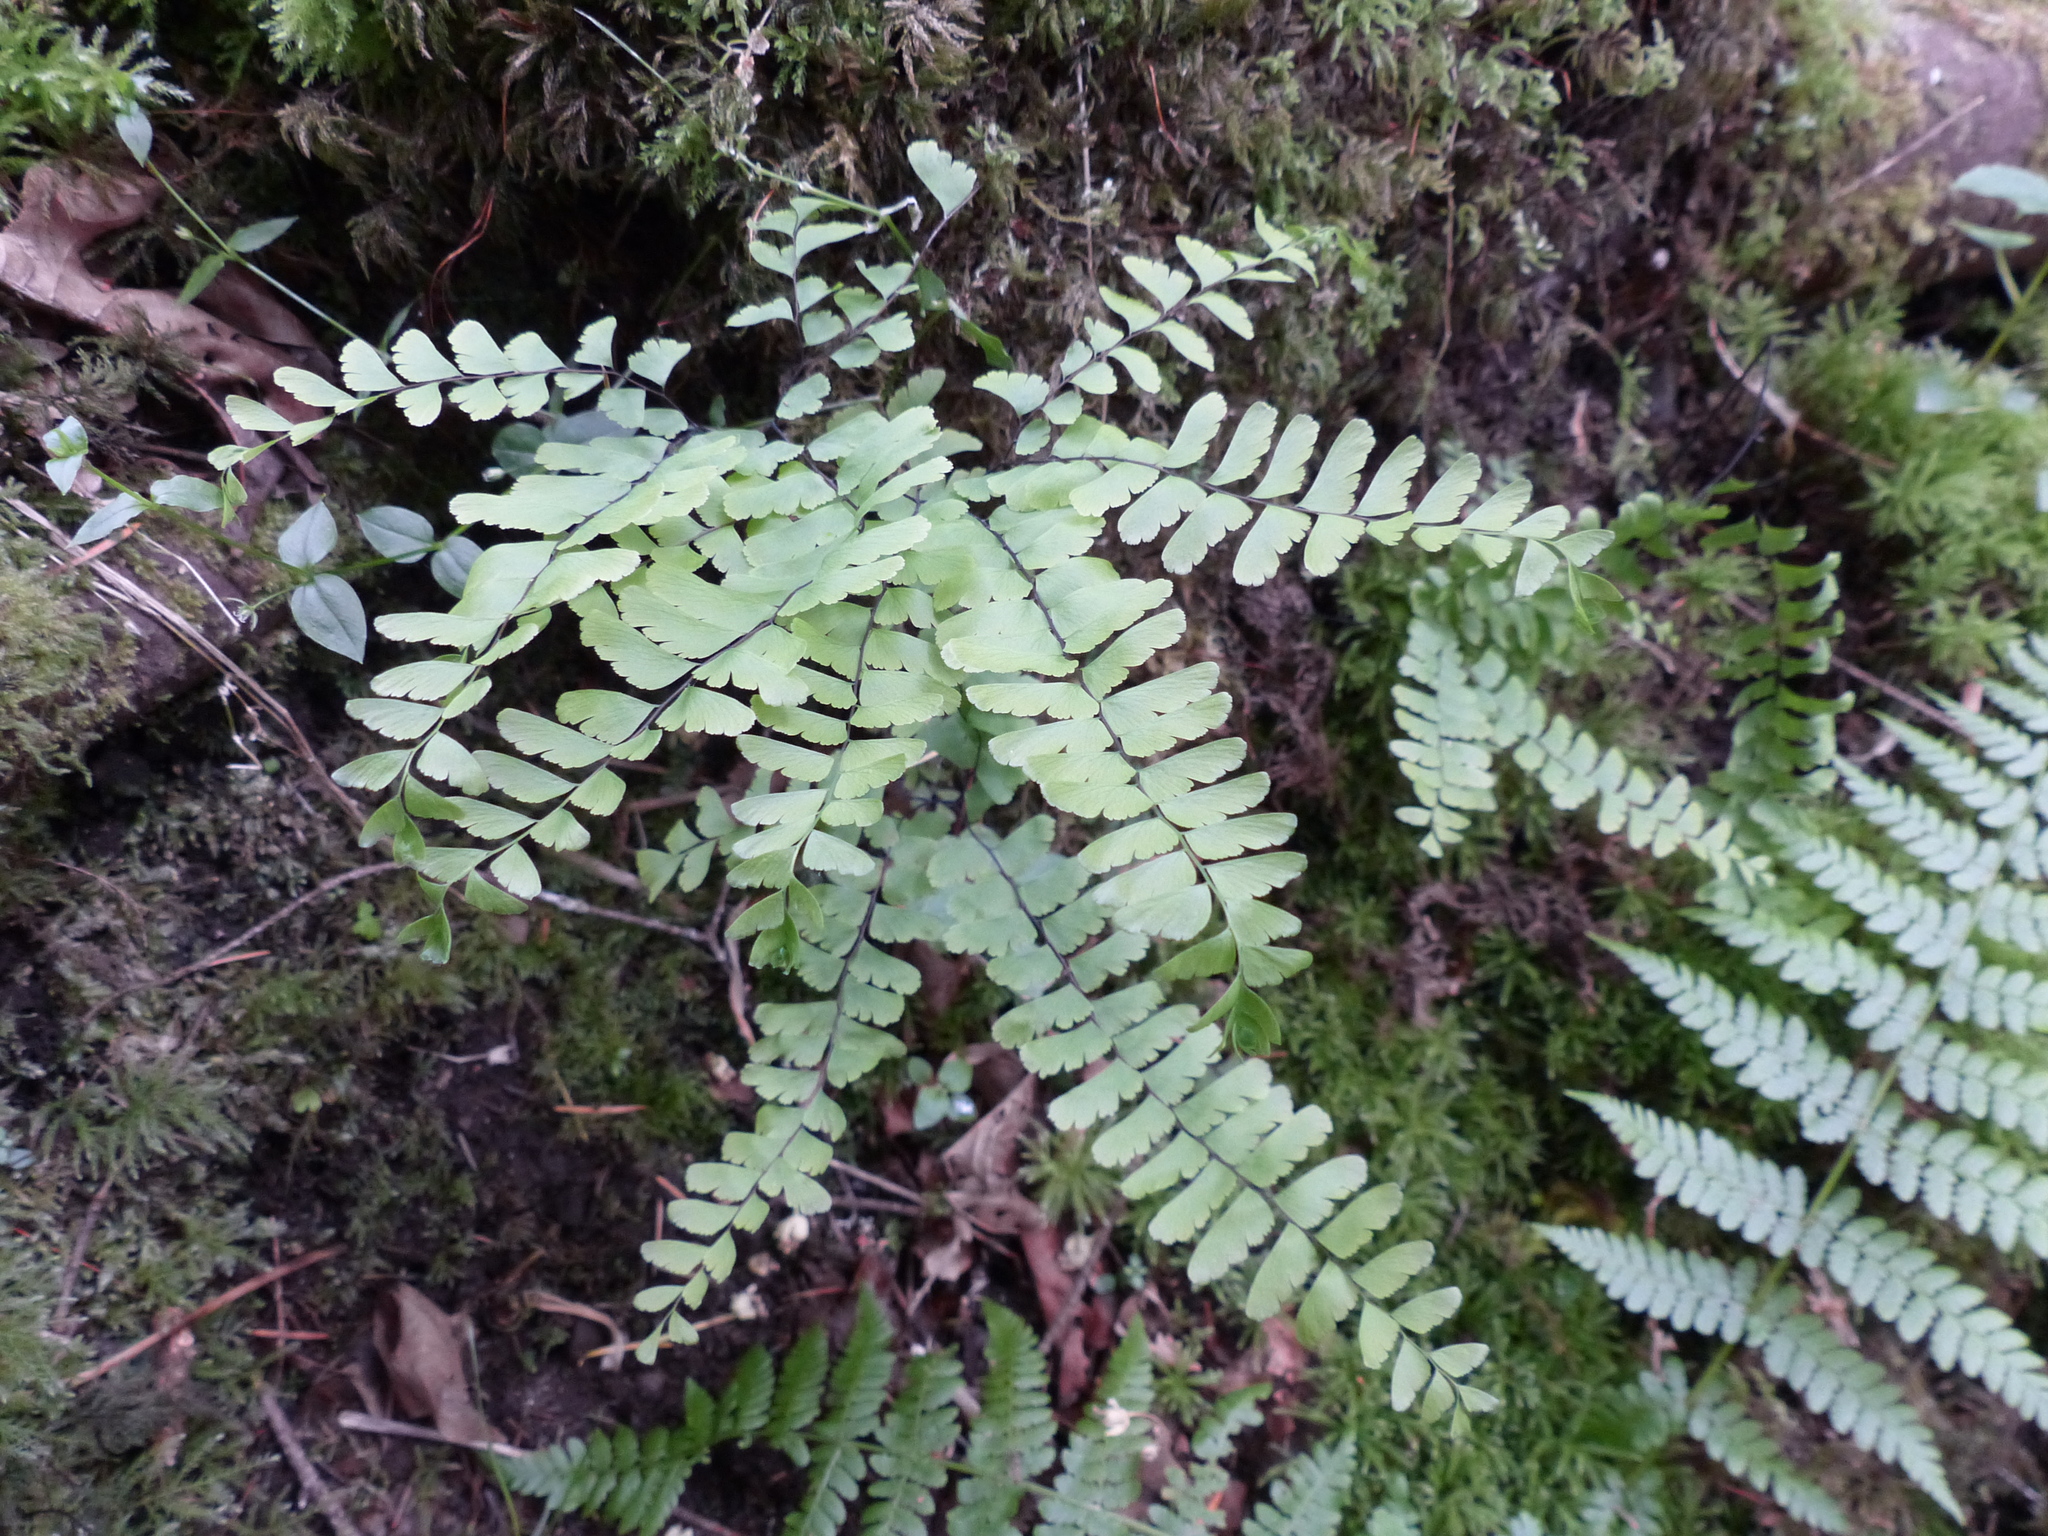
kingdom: Plantae
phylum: Tracheophyta
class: Polypodiopsida
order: Polypodiales
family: Pteridaceae
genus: Adiantum
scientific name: Adiantum aleuticum
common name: Aleutian maidenhair fern
